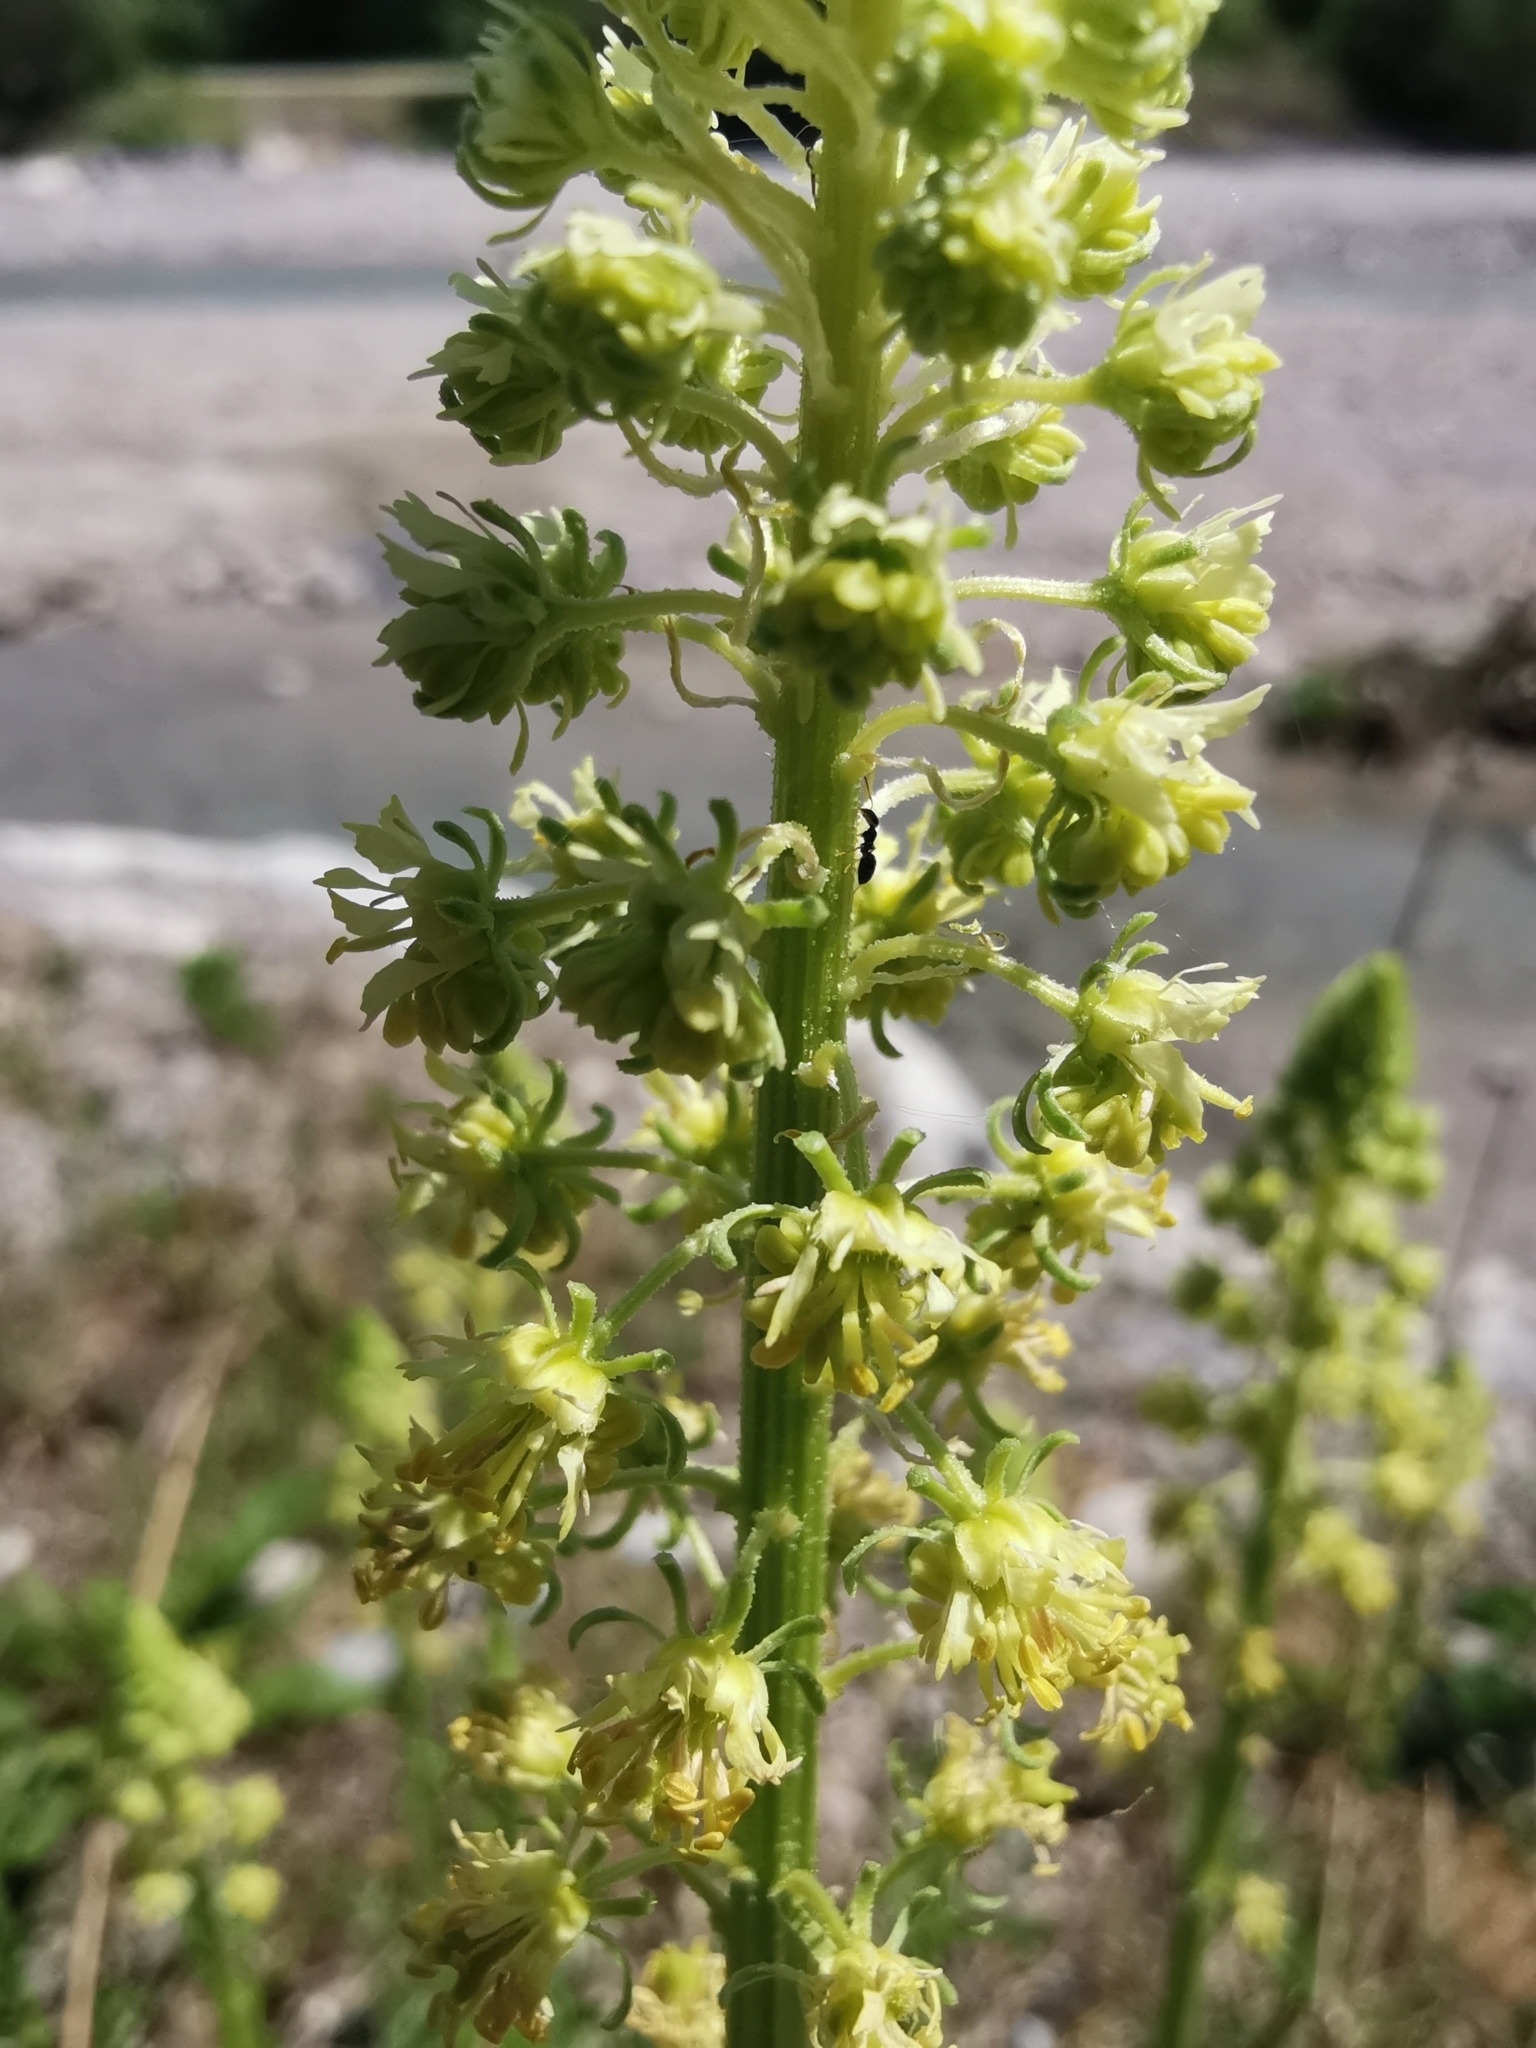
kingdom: Plantae
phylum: Tracheophyta
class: Magnoliopsida
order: Brassicales
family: Resedaceae
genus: Reseda
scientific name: Reseda lutea
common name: Wild mignonette
